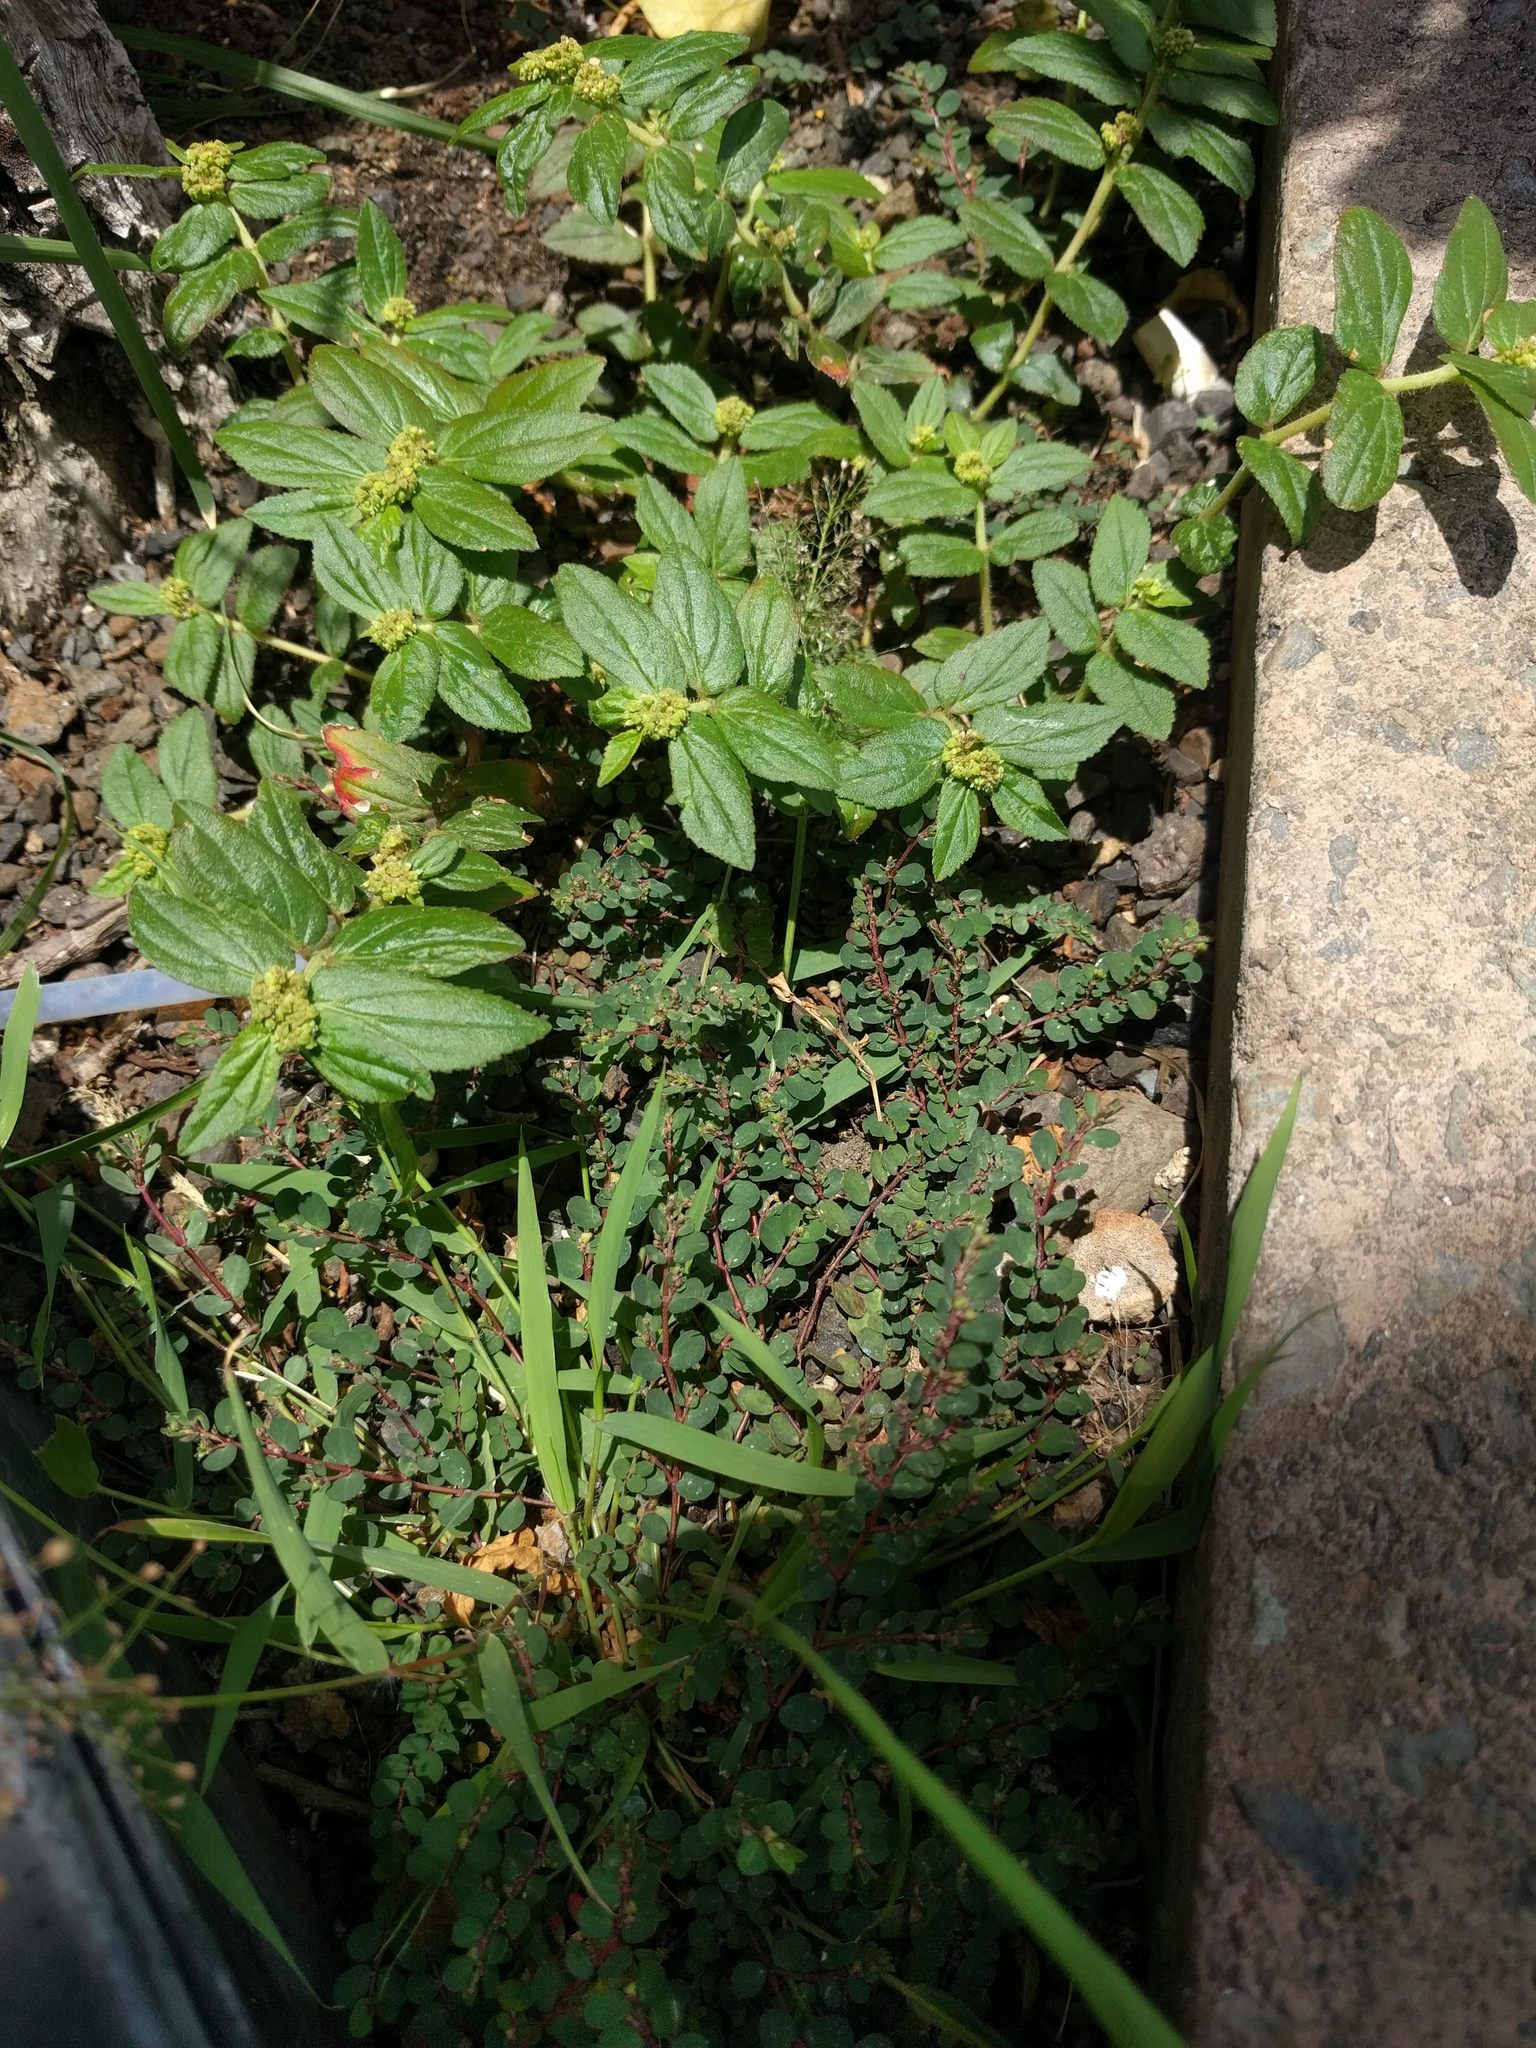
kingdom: Plantae
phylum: Tracheophyta
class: Magnoliopsida
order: Malpighiales
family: Euphorbiaceae
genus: Euphorbia
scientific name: Euphorbia prostrata
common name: Prostrate sandmat
